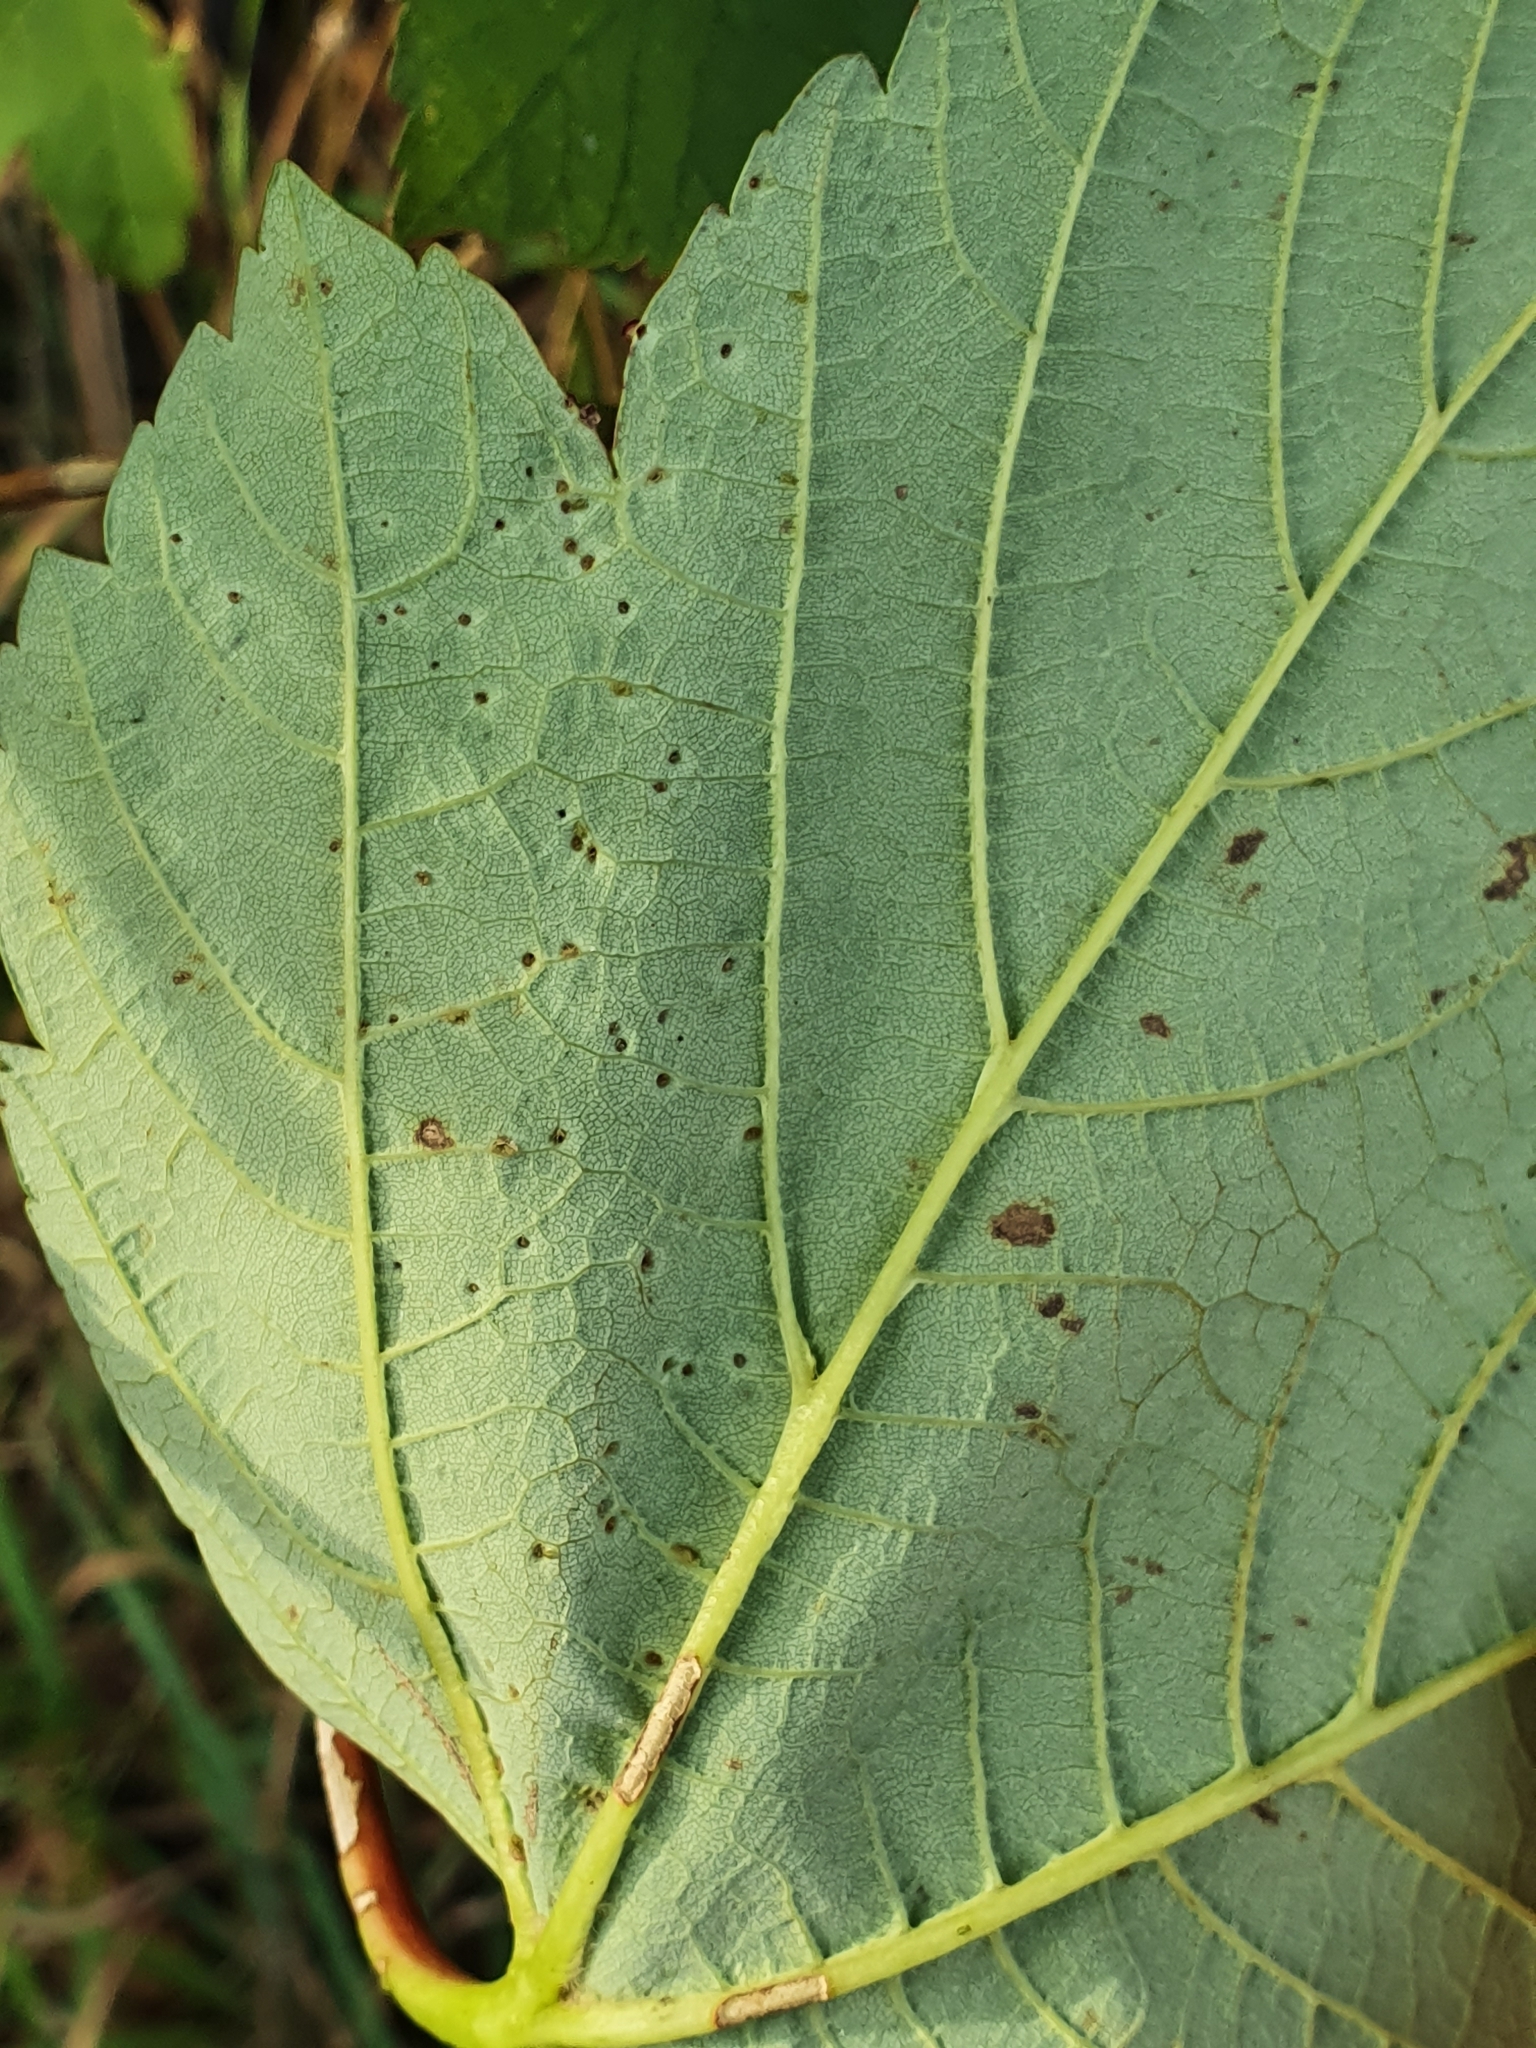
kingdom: Animalia
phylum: Arthropoda
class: Arachnida
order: Trombidiformes
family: Eriophyidae
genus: Aceria
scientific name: Aceria macrorhynchus
